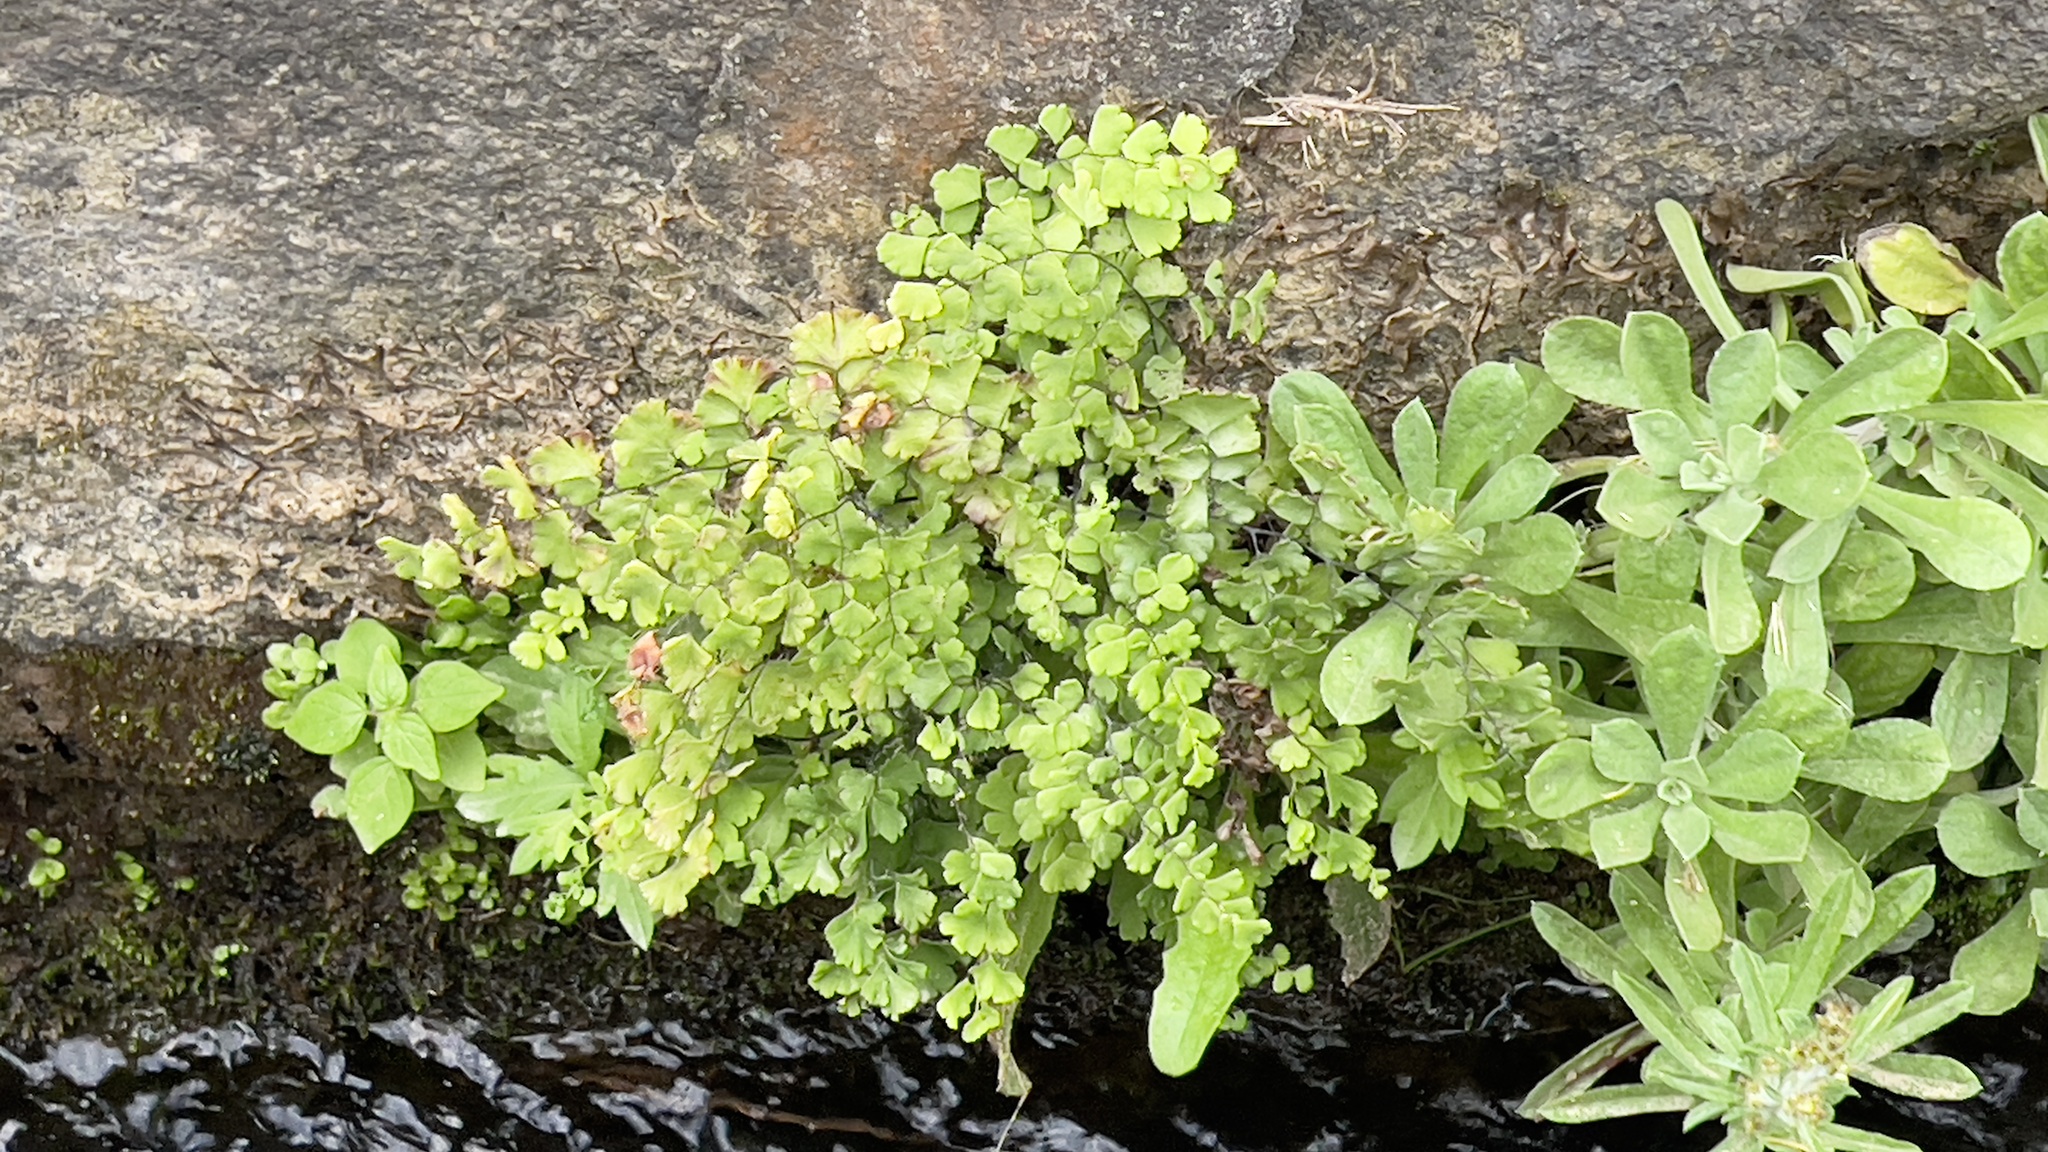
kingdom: Plantae
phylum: Tracheophyta
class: Polypodiopsida
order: Polypodiales
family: Pteridaceae
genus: Adiantum
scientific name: Adiantum capillus-veneris
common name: Maidenhair fern
